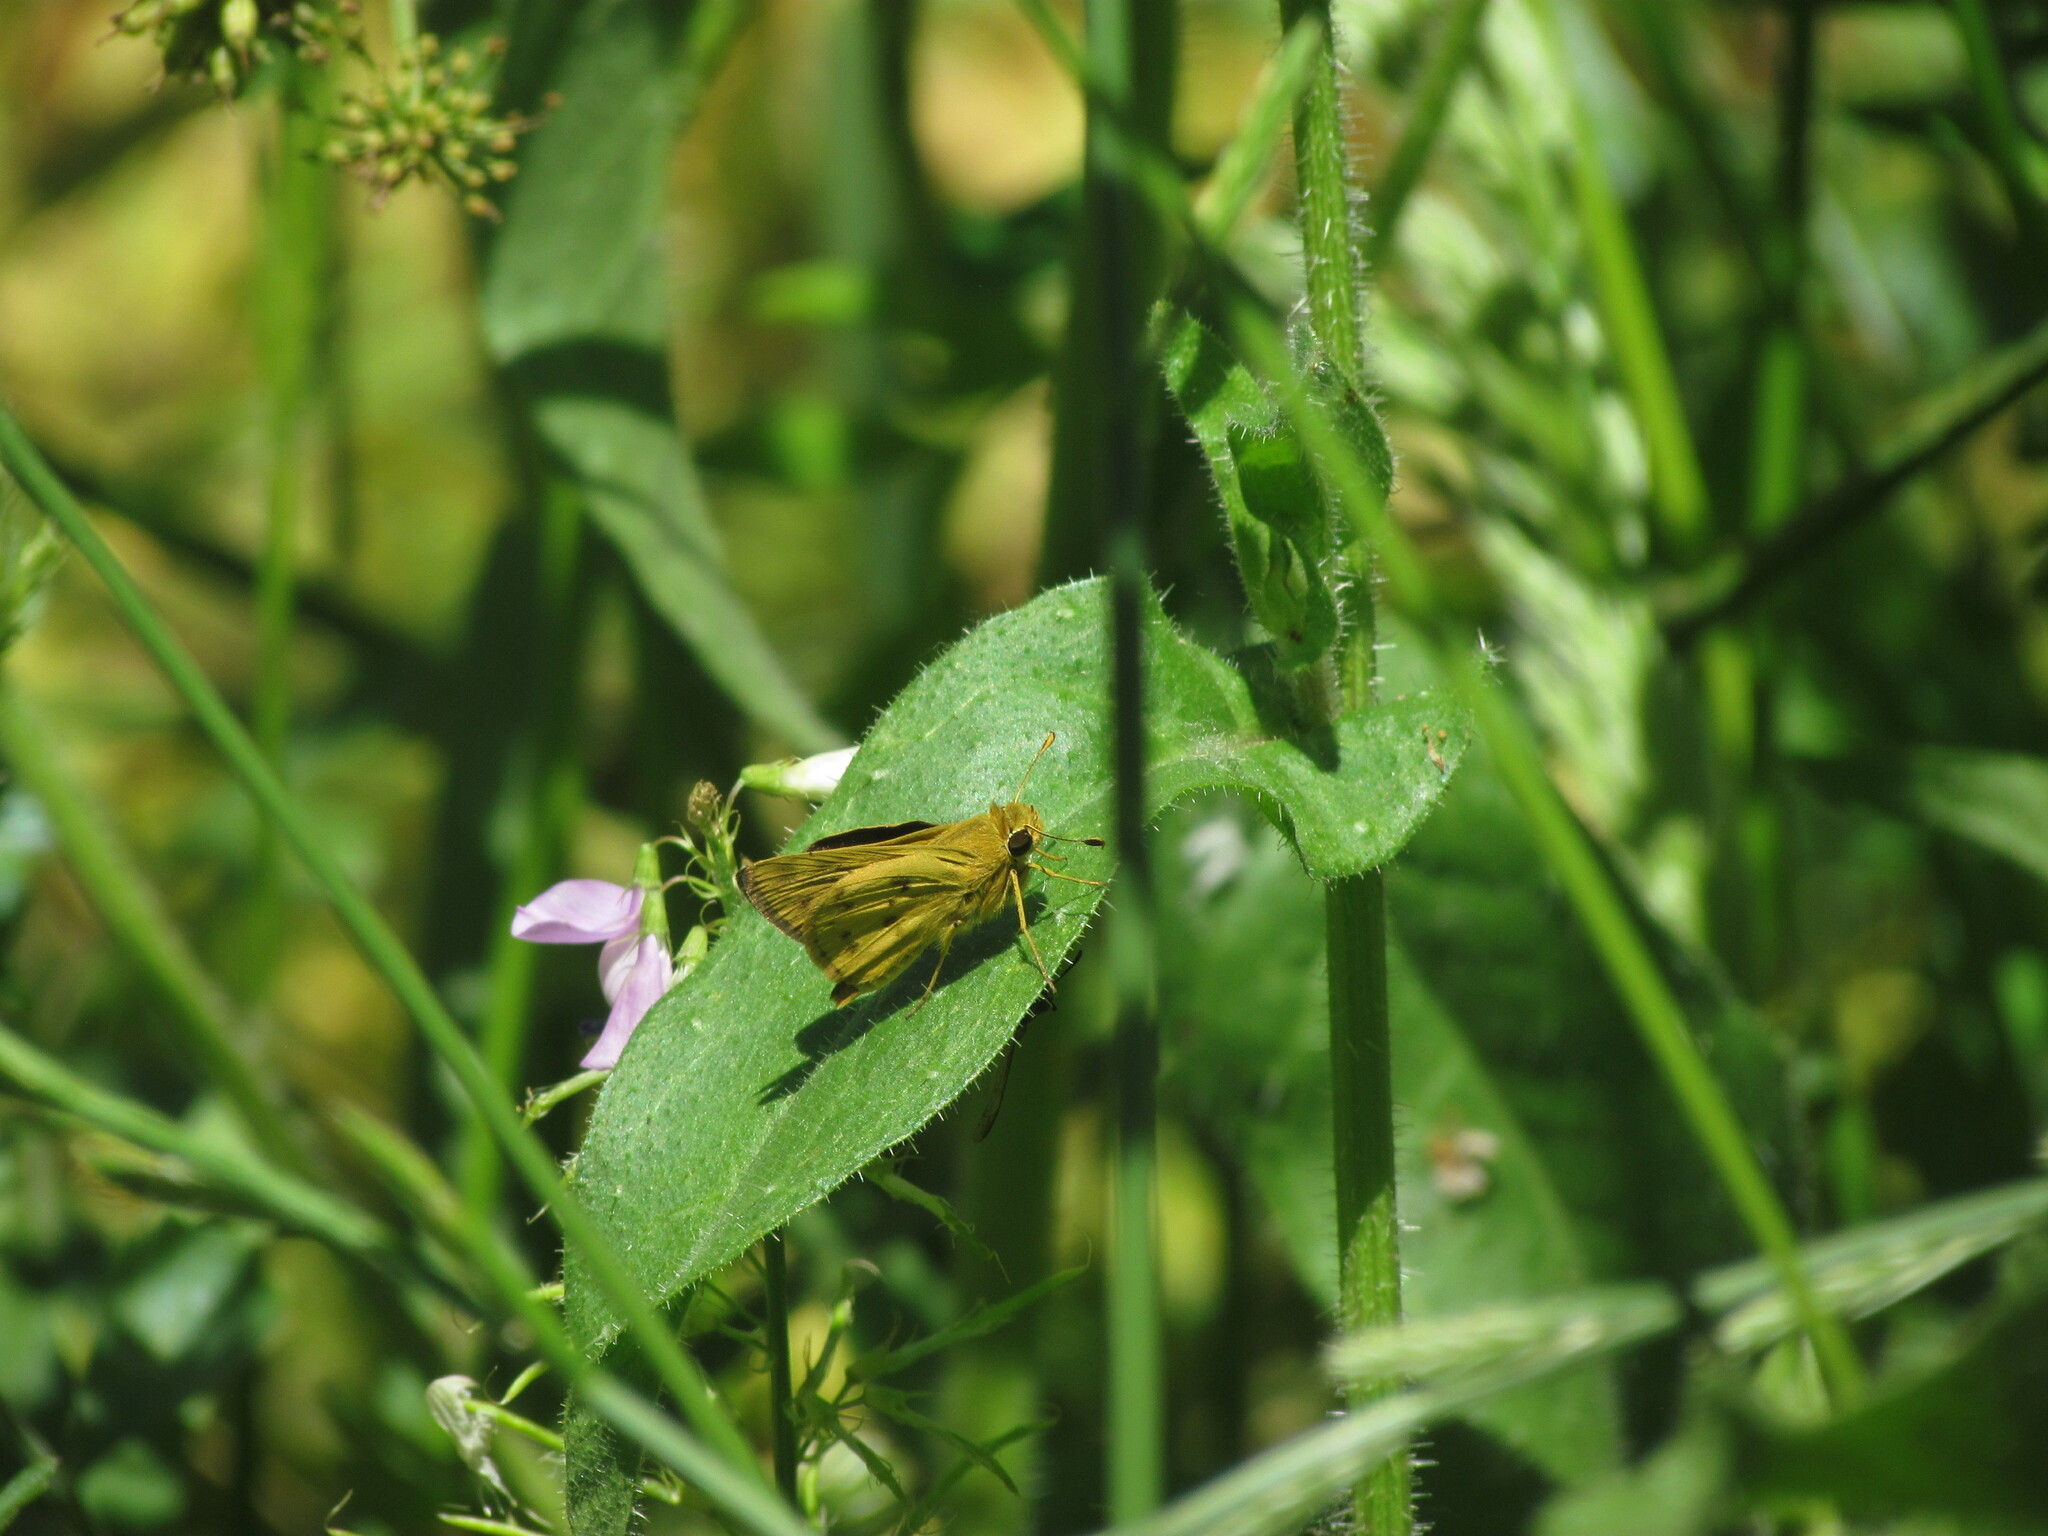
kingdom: Animalia
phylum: Arthropoda
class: Insecta
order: Lepidoptera
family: Hesperiidae
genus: Polites
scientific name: Polites vibex
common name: Whirlabout
